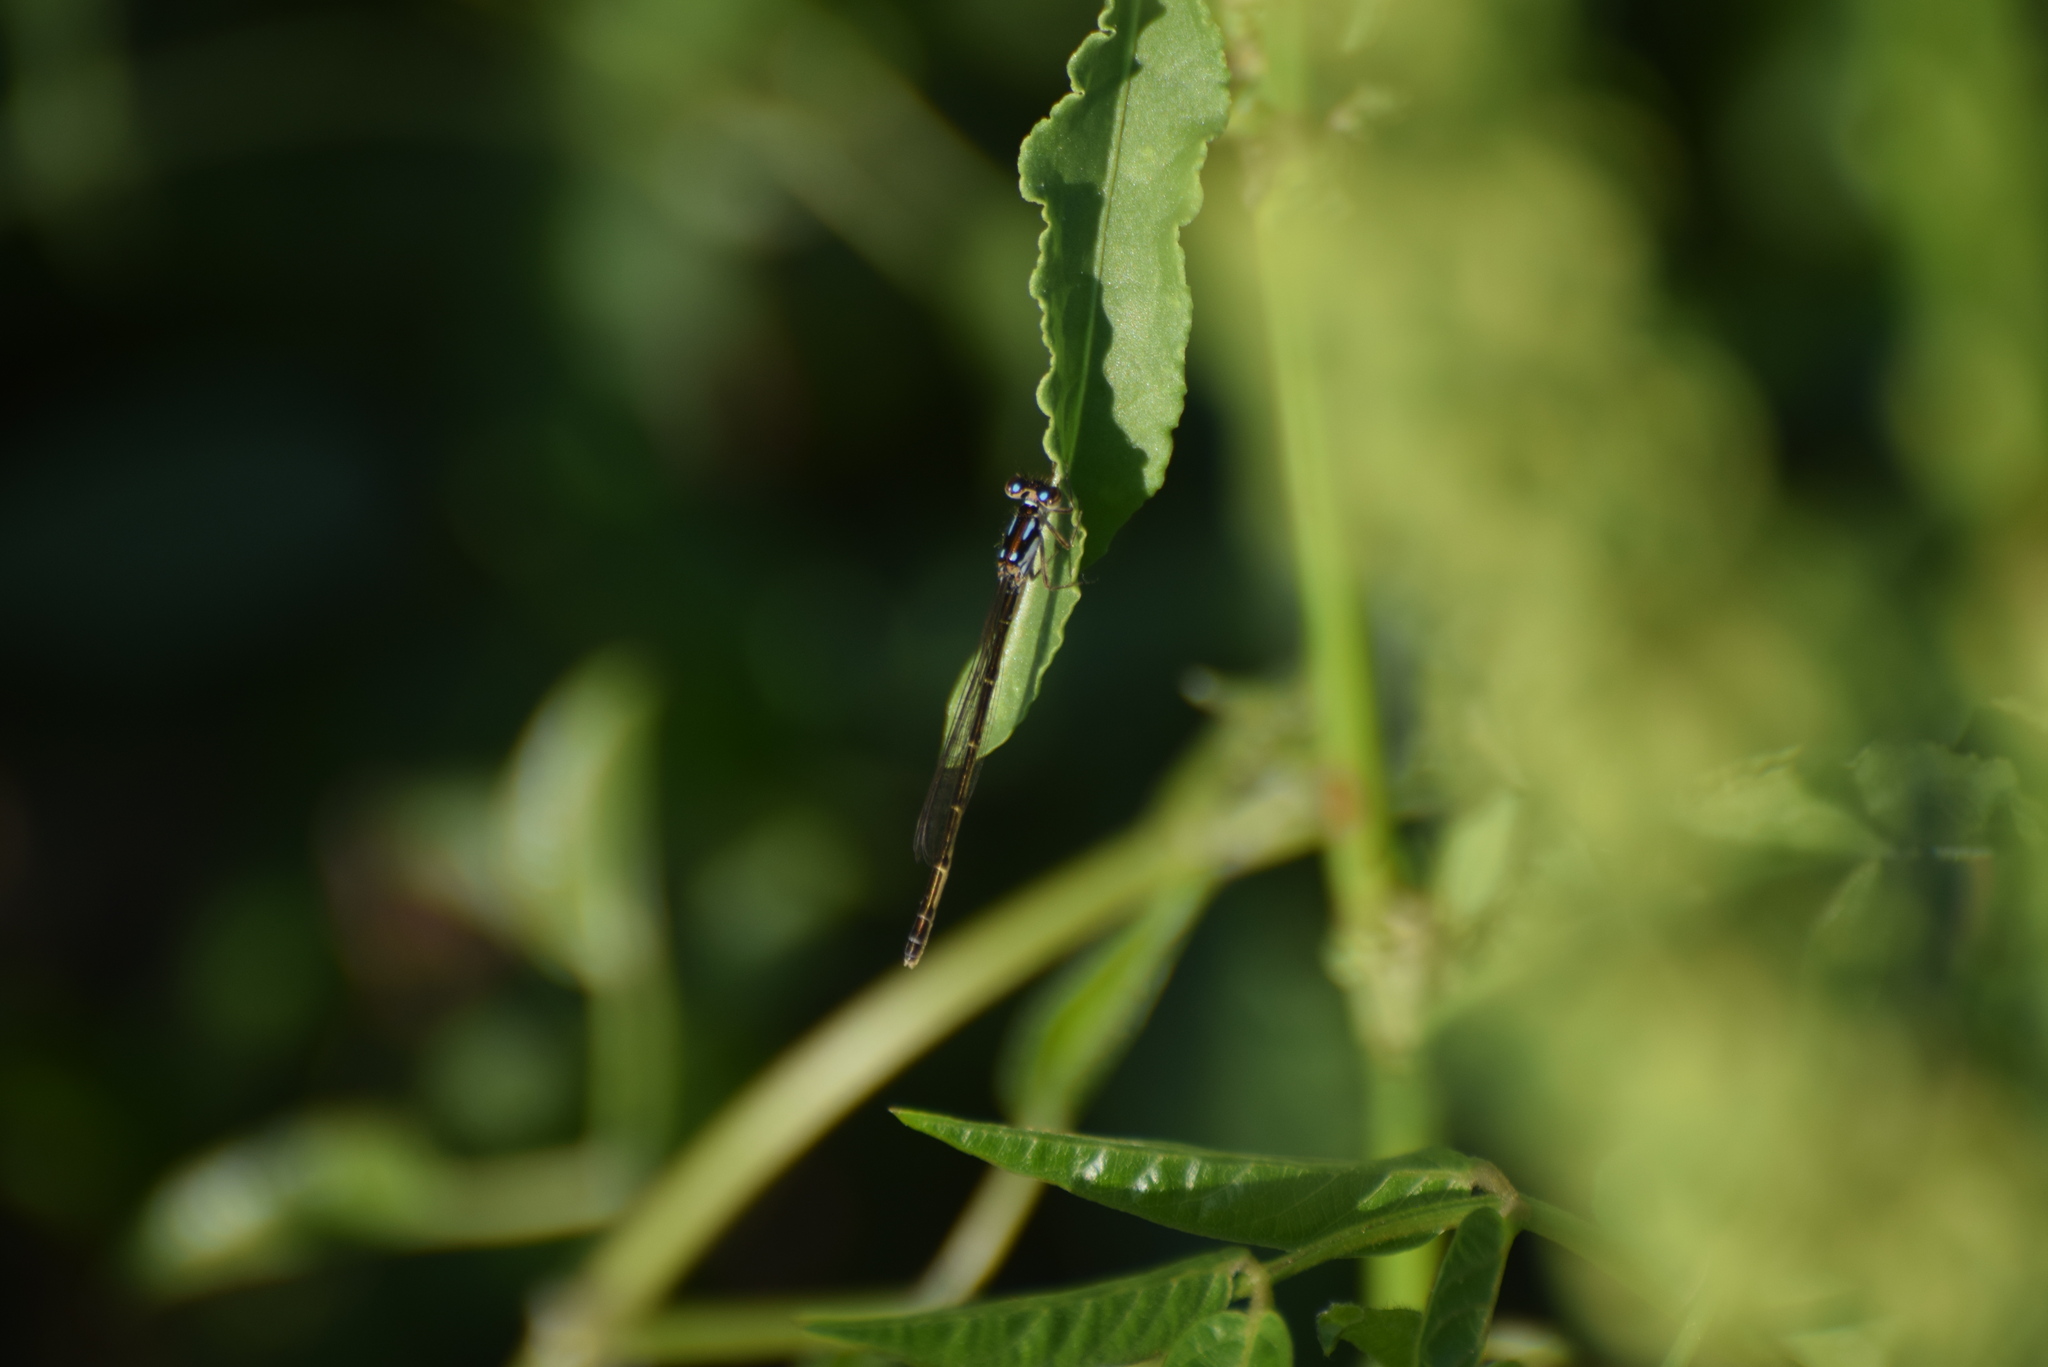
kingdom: Animalia
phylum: Arthropoda
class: Insecta
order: Odonata
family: Coenagrionidae
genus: Ischnura
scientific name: Ischnura posita
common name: Fragile forktail
